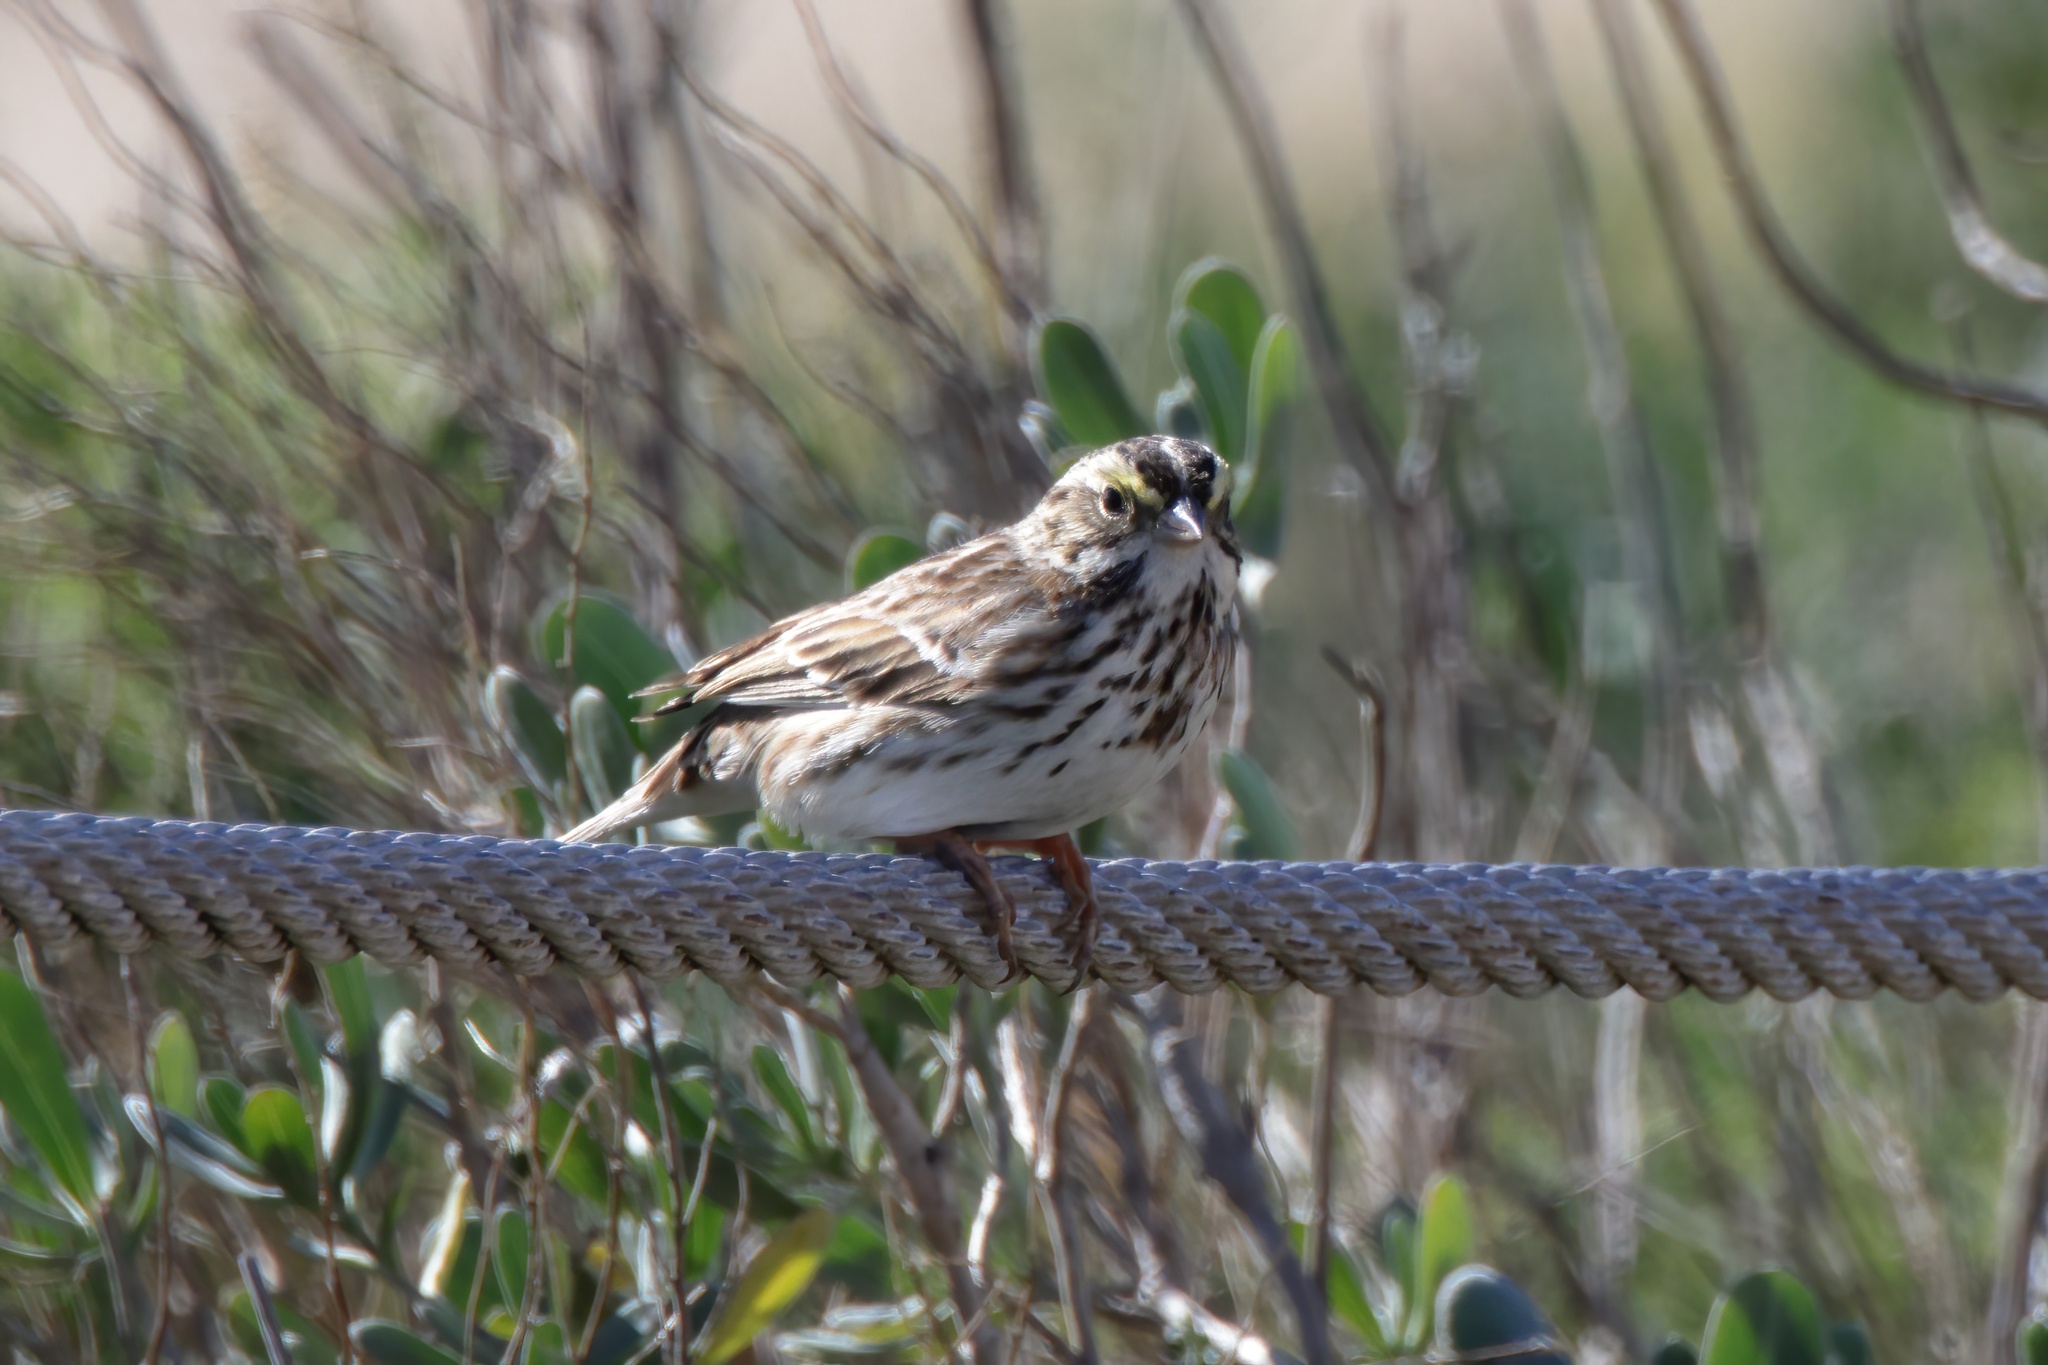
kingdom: Animalia
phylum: Chordata
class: Aves
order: Passeriformes
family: Passerellidae
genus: Passerculus
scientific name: Passerculus sandwichensis
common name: Savannah sparrow
